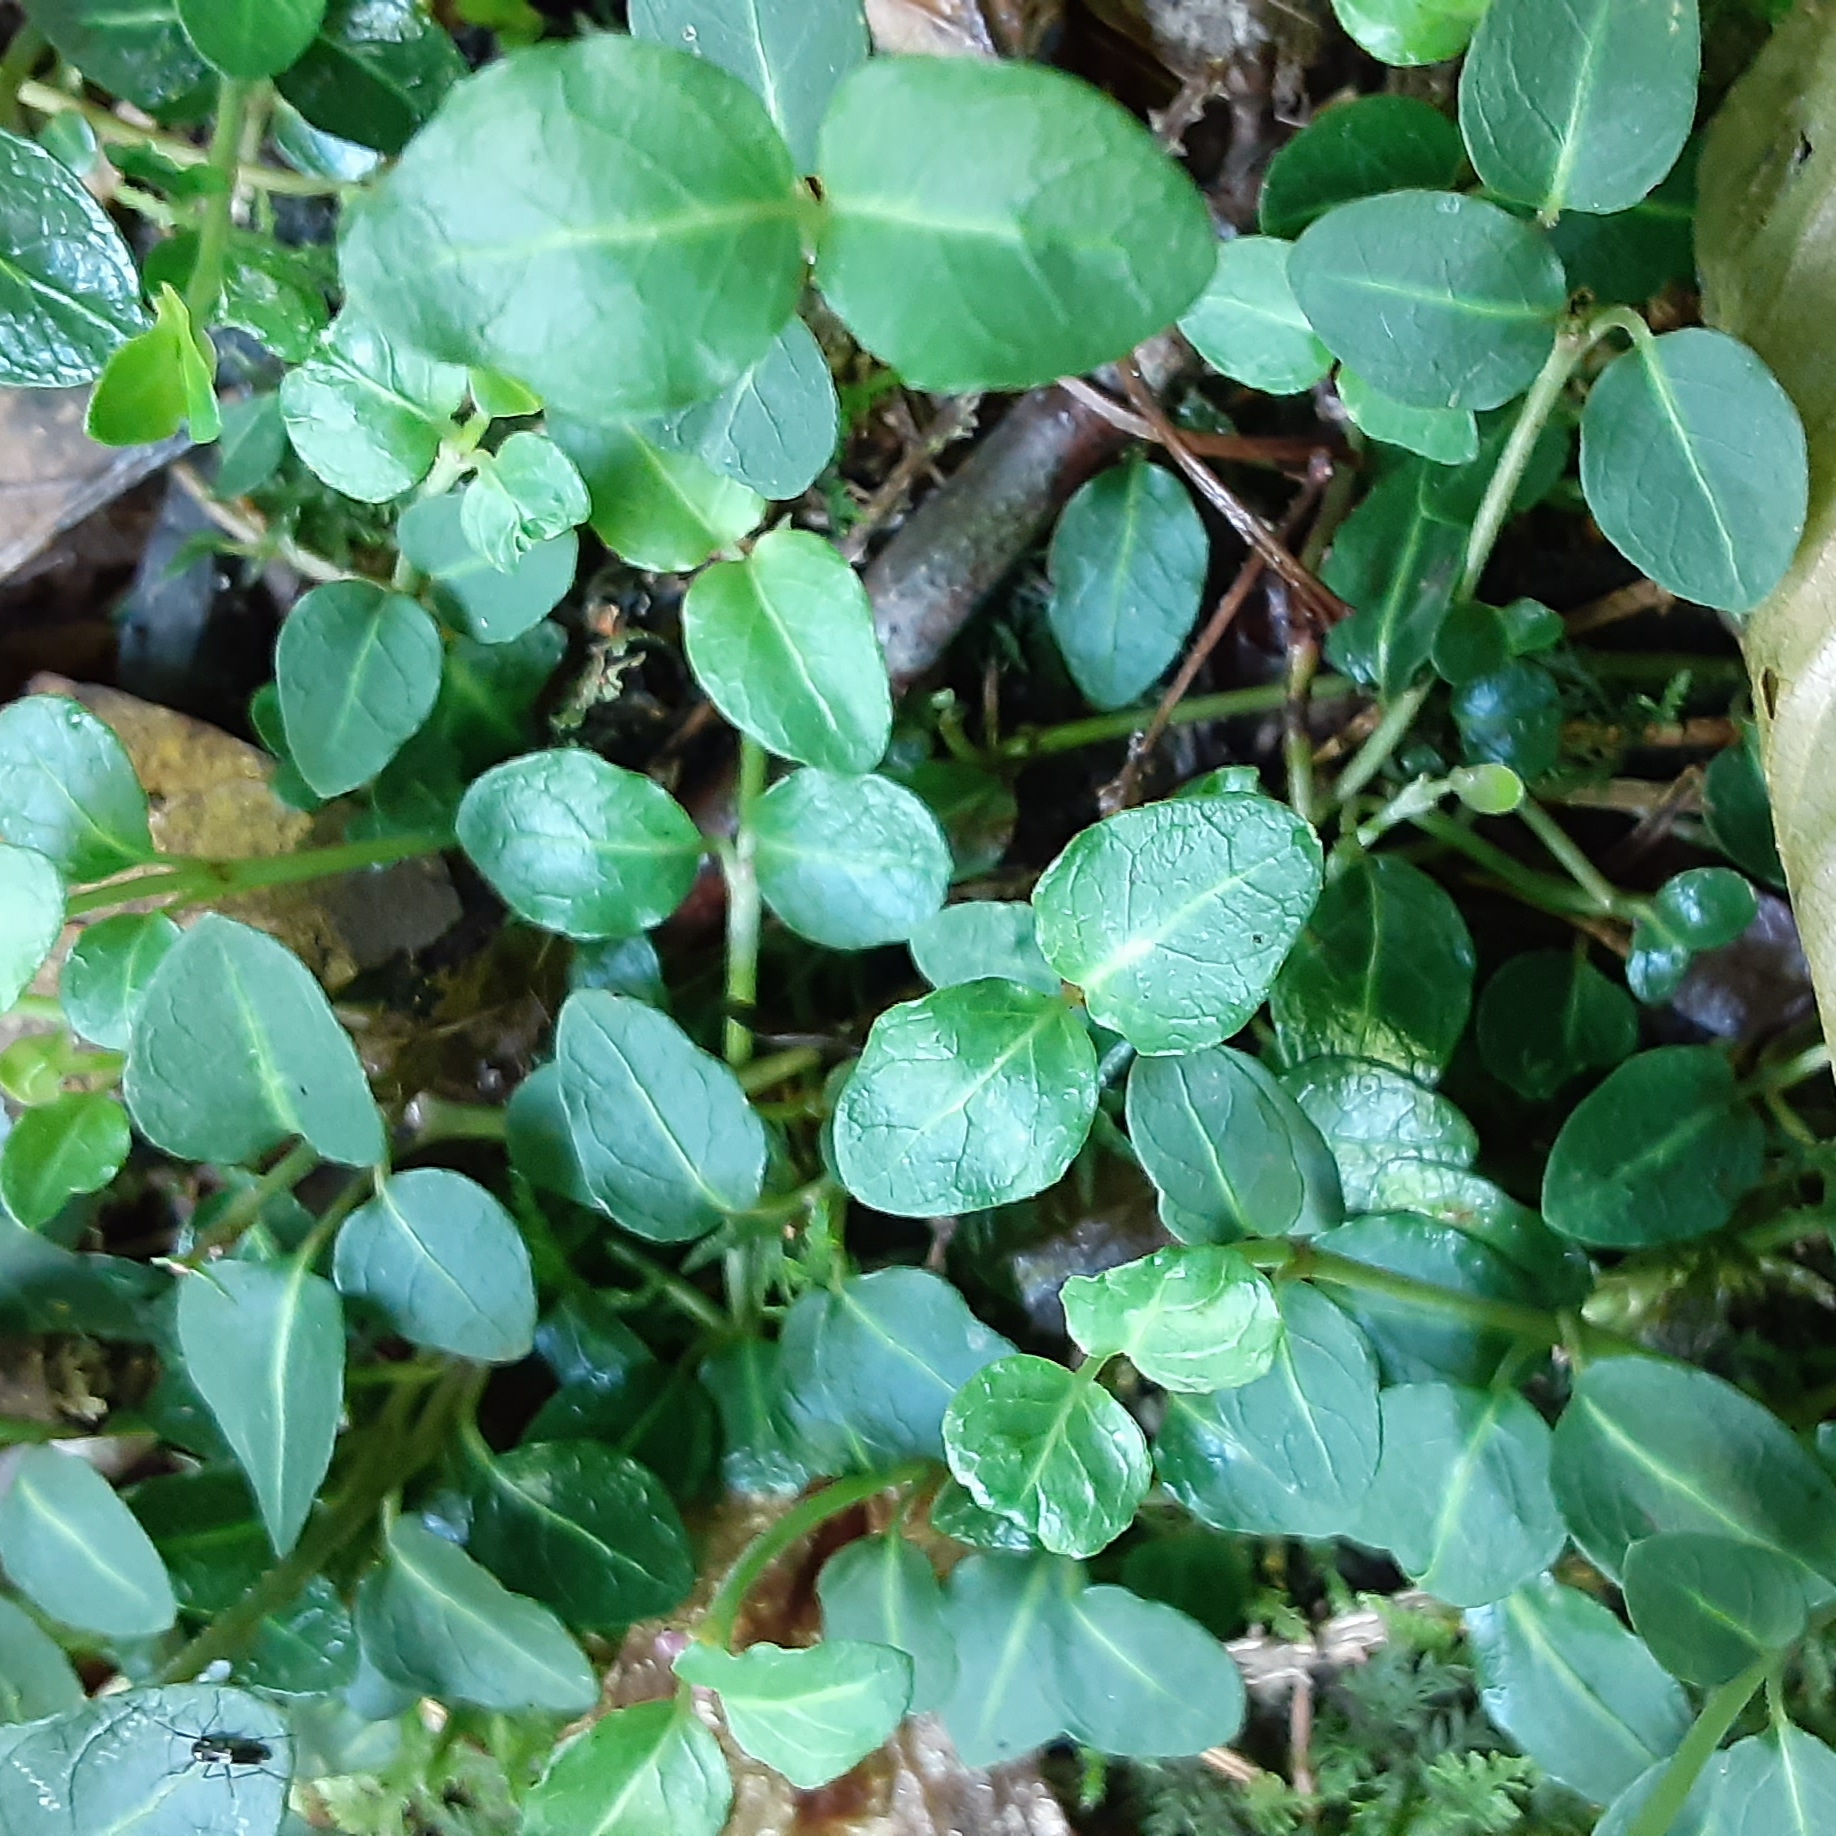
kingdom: Plantae
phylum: Tracheophyta
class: Magnoliopsida
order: Gentianales
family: Rubiaceae
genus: Mitchella
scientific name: Mitchella repens
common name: Partridge-berry
